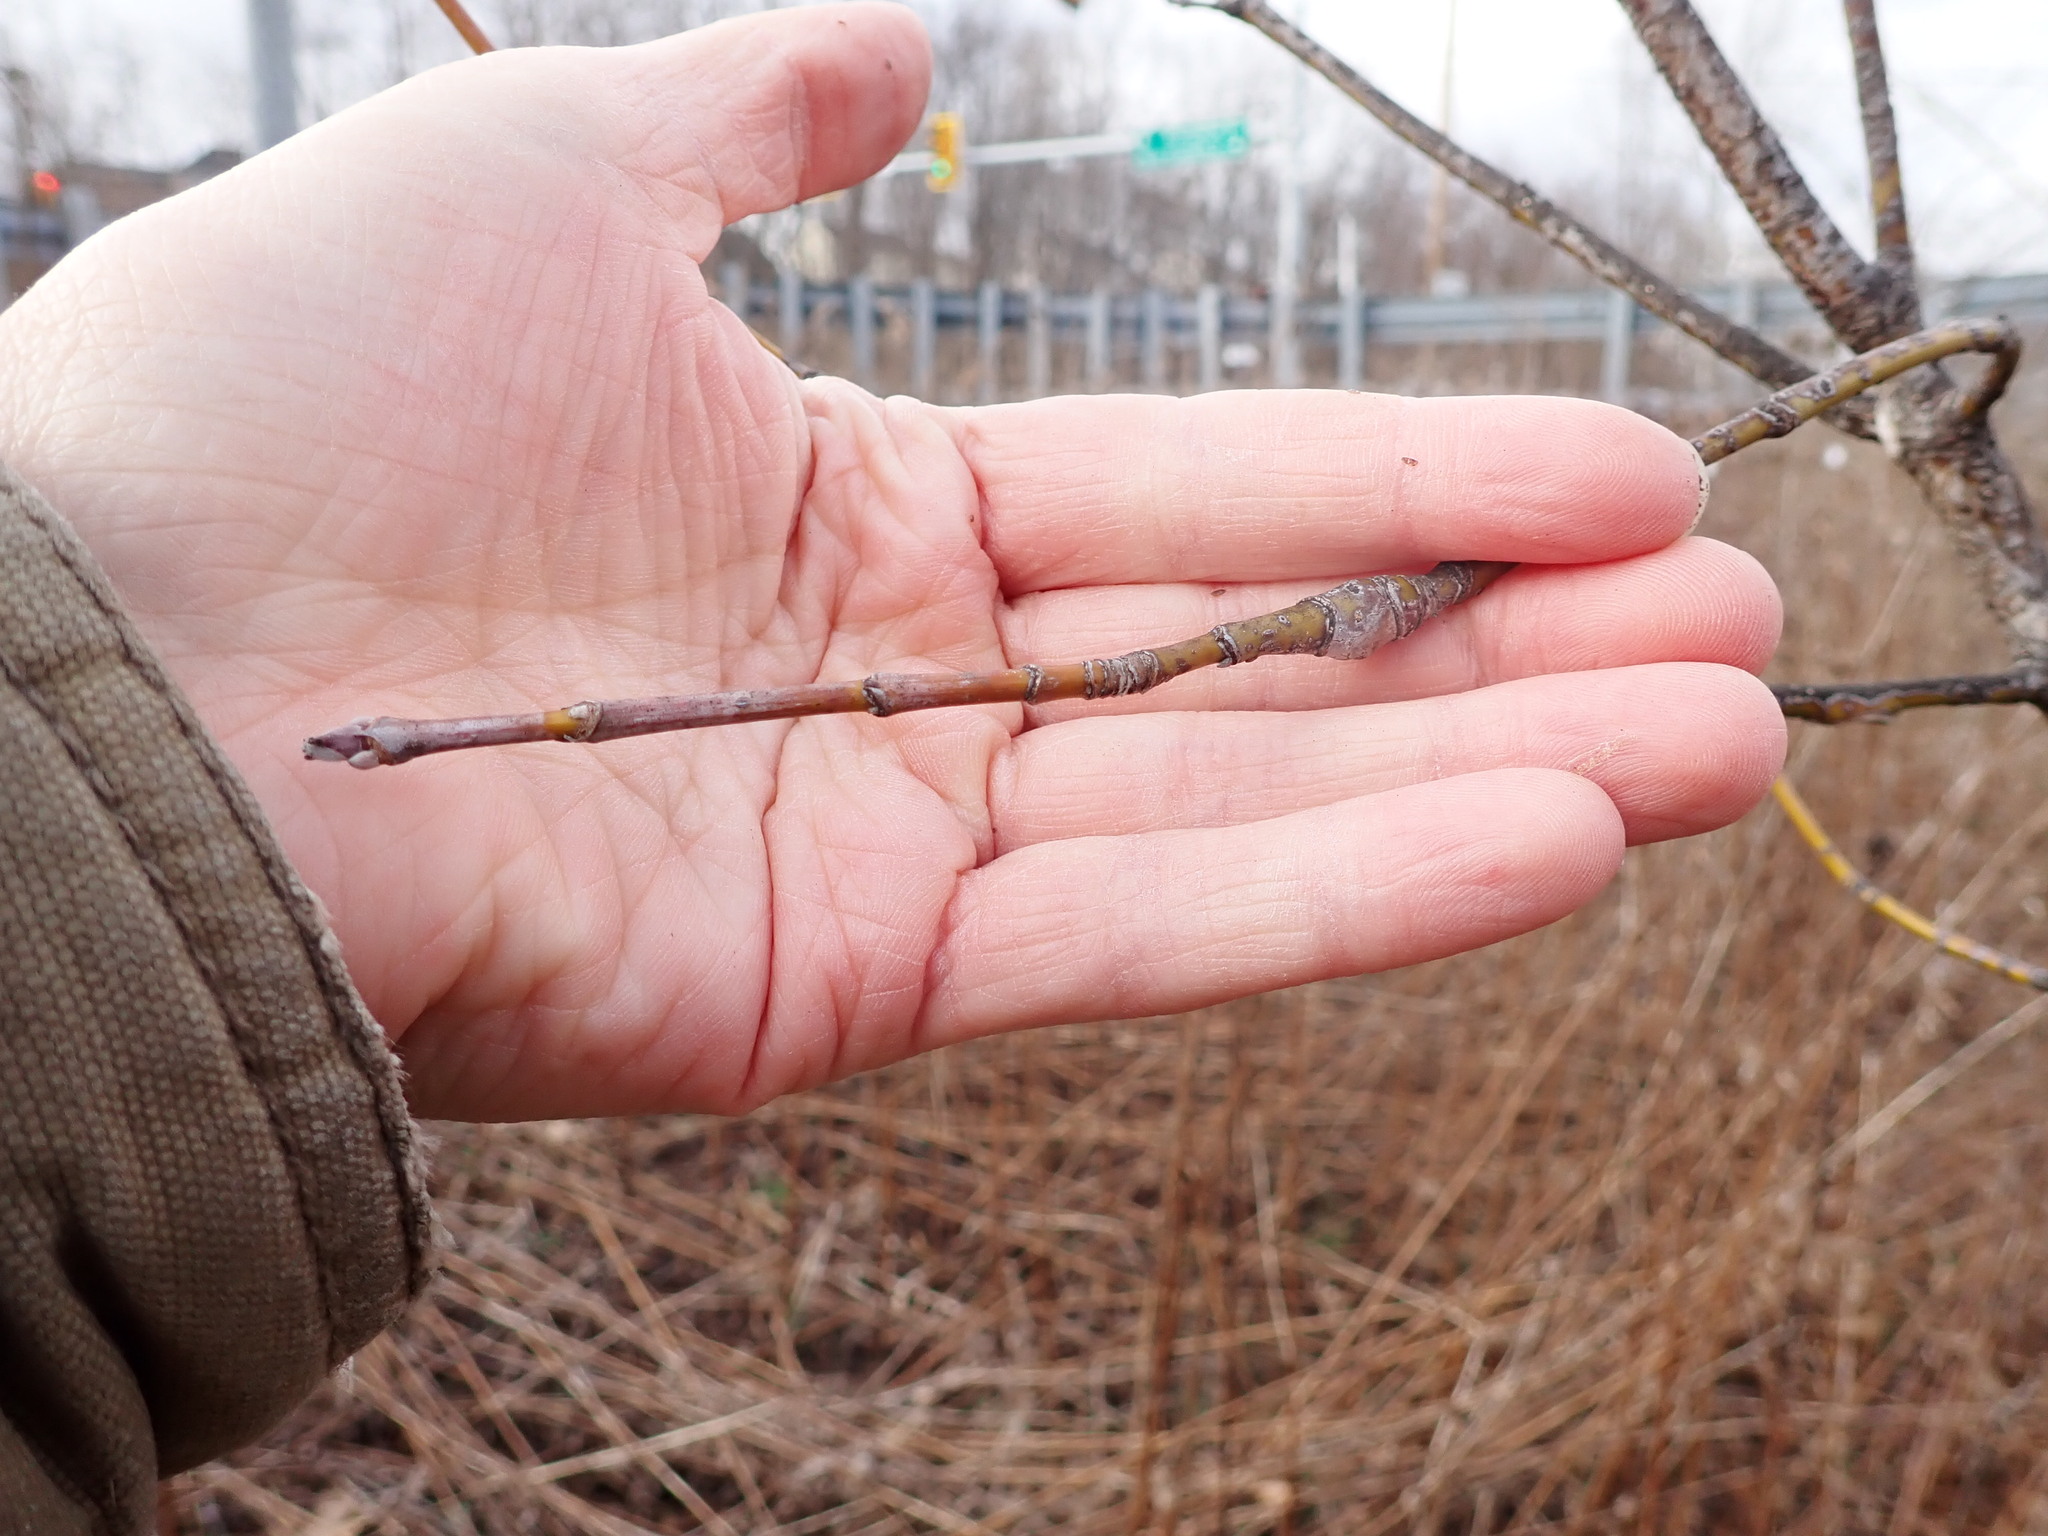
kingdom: Plantae
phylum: Tracheophyta
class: Magnoliopsida
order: Sapindales
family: Sapindaceae
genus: Acer
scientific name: Acer negundo
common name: Ashleaf maple
